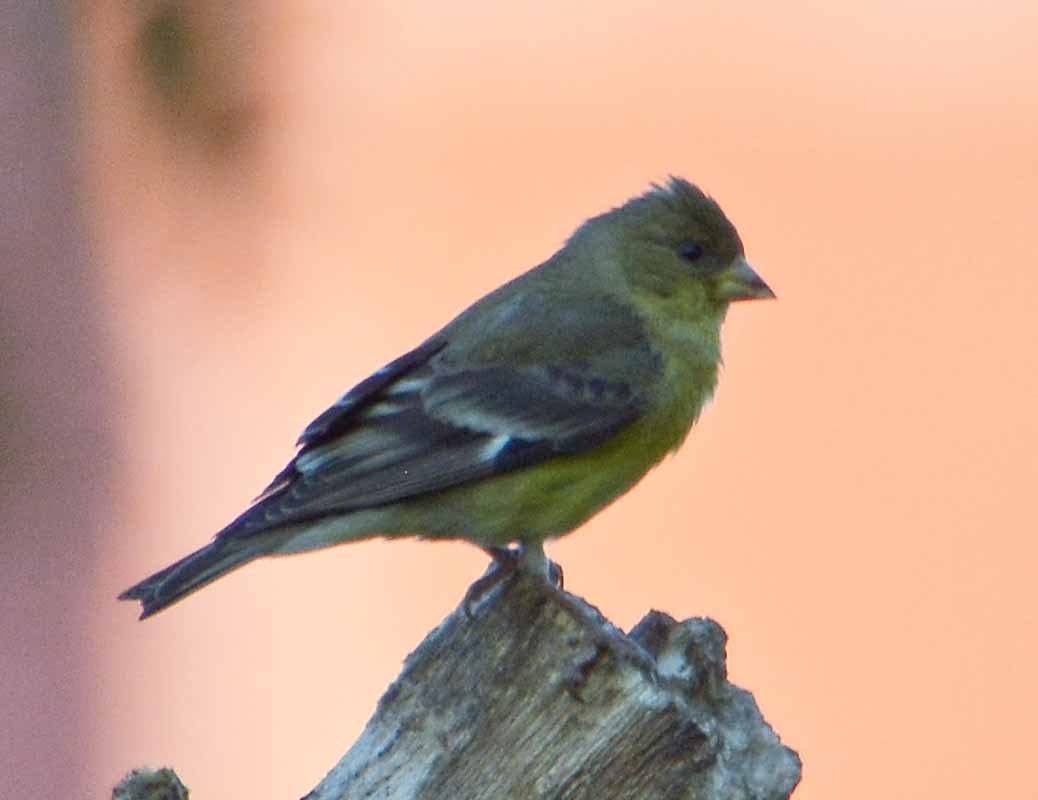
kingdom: Animalia
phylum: Chordata
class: Aves
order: Passeriformes
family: Fringillidae
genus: Spinus
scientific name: Spinus psaltria
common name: Lesser goldfinch
